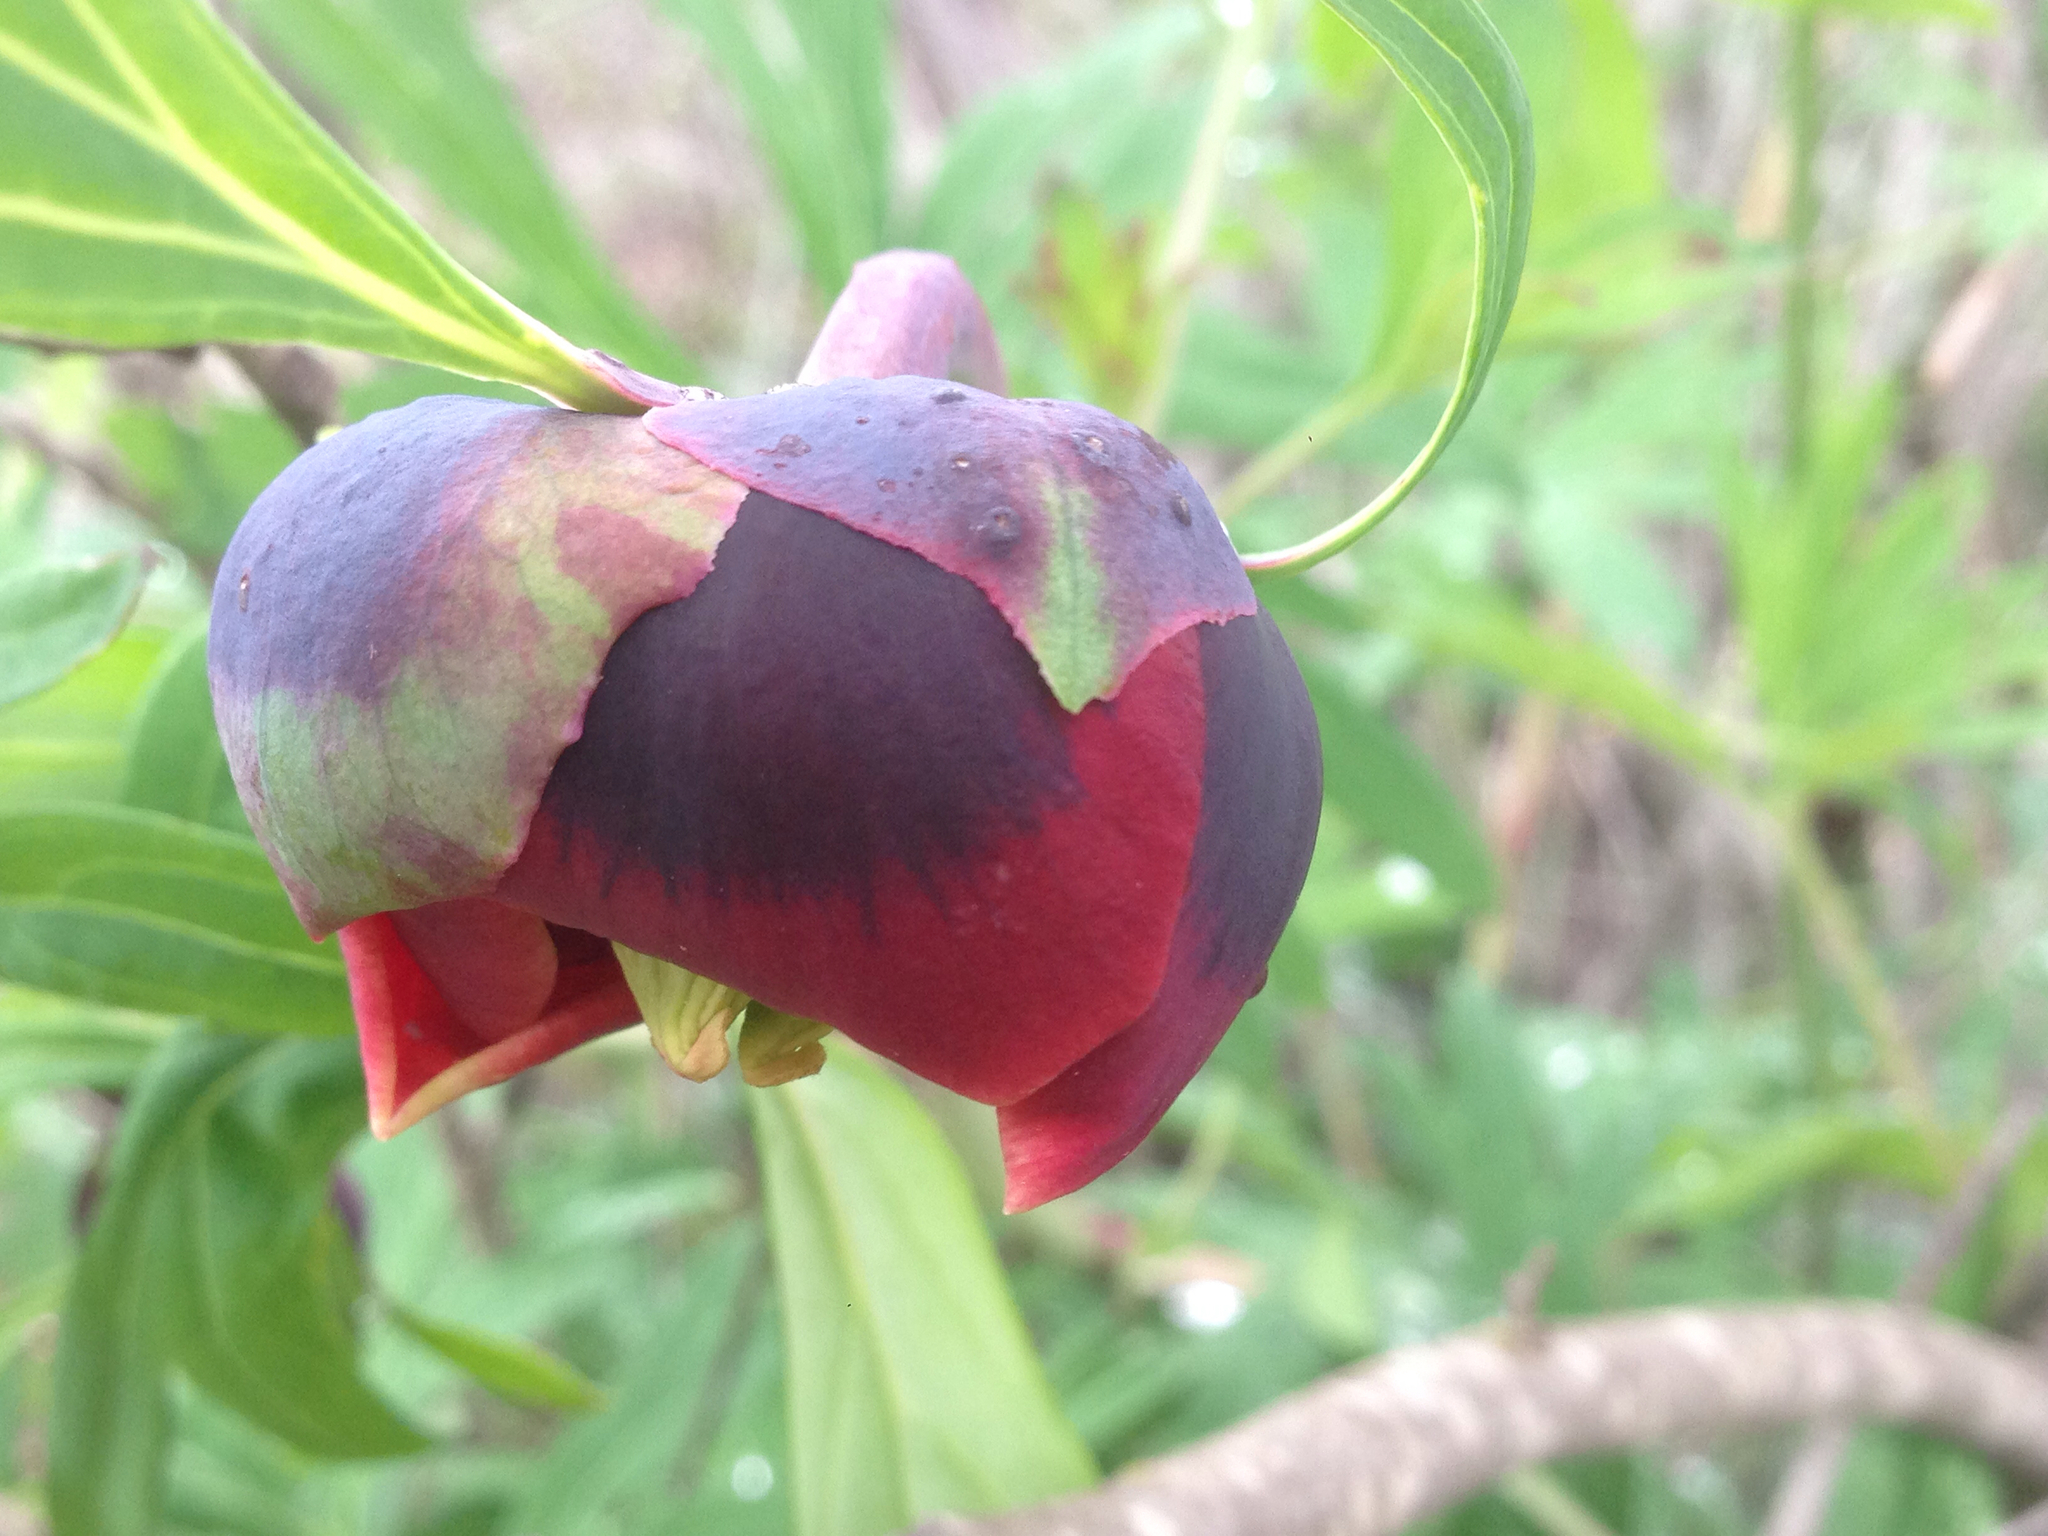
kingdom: Plantae
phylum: Tracheophyta
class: Magnoliopsida
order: Saxifragales
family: Paeoniaceae
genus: Paeonia
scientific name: Paeonia californica
